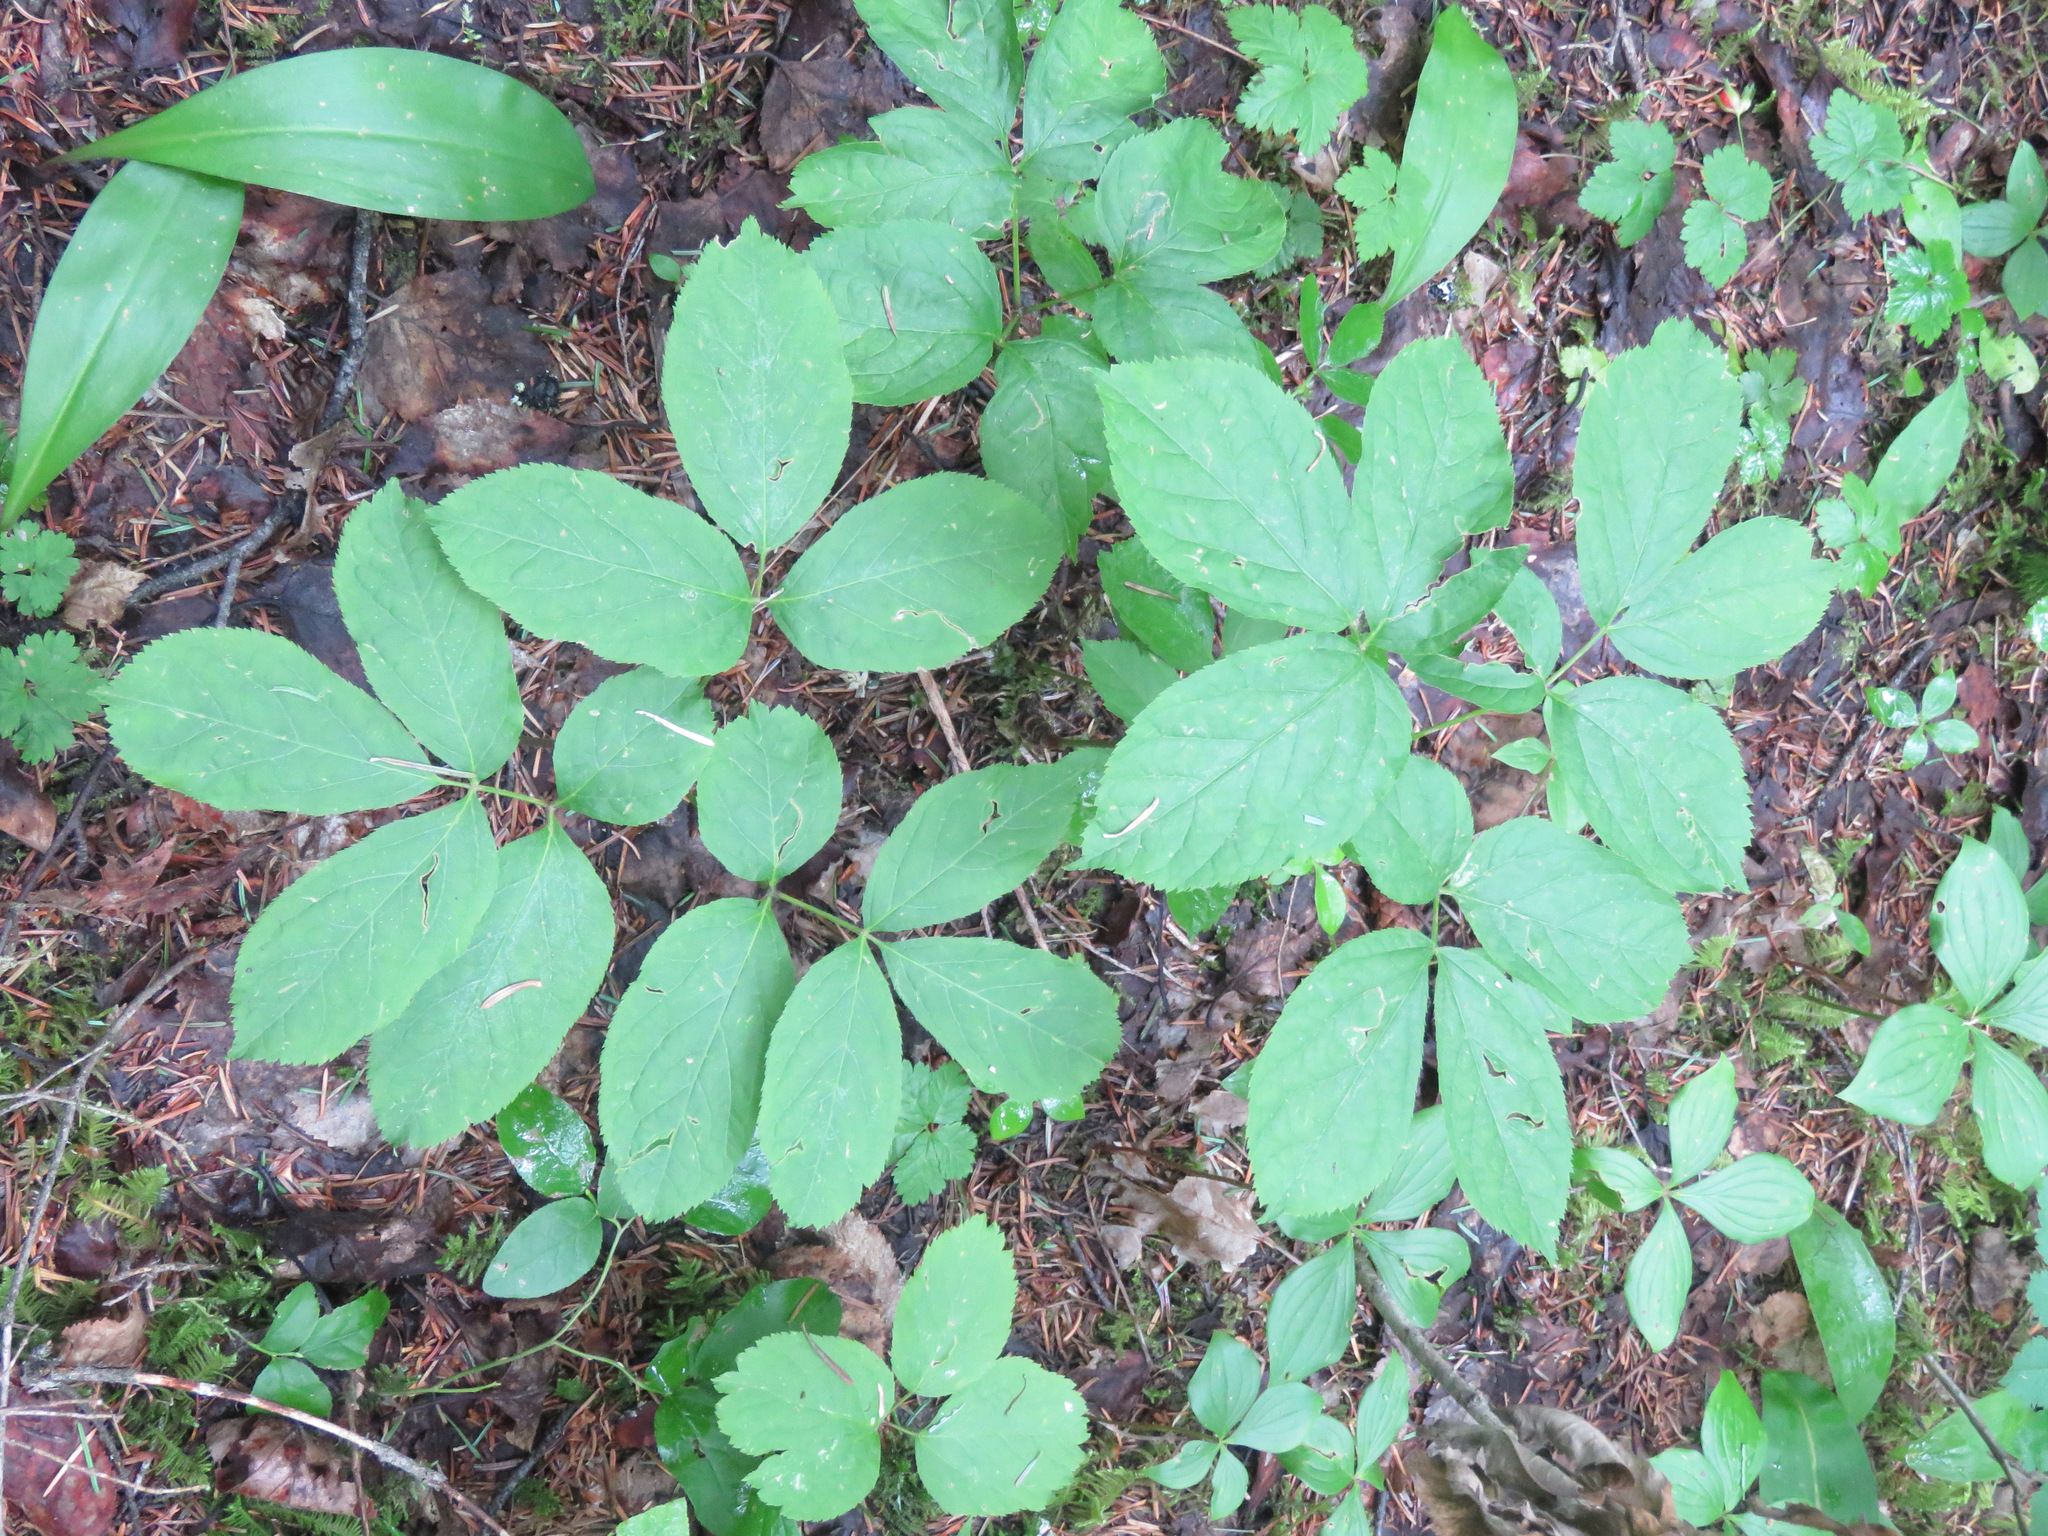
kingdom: Plantae
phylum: Tracheophyta
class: Magnoliopsida
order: Apiales
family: Araliaceae
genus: Aralia
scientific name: Aralia nudicaulis
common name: Wild sarsaparilla
